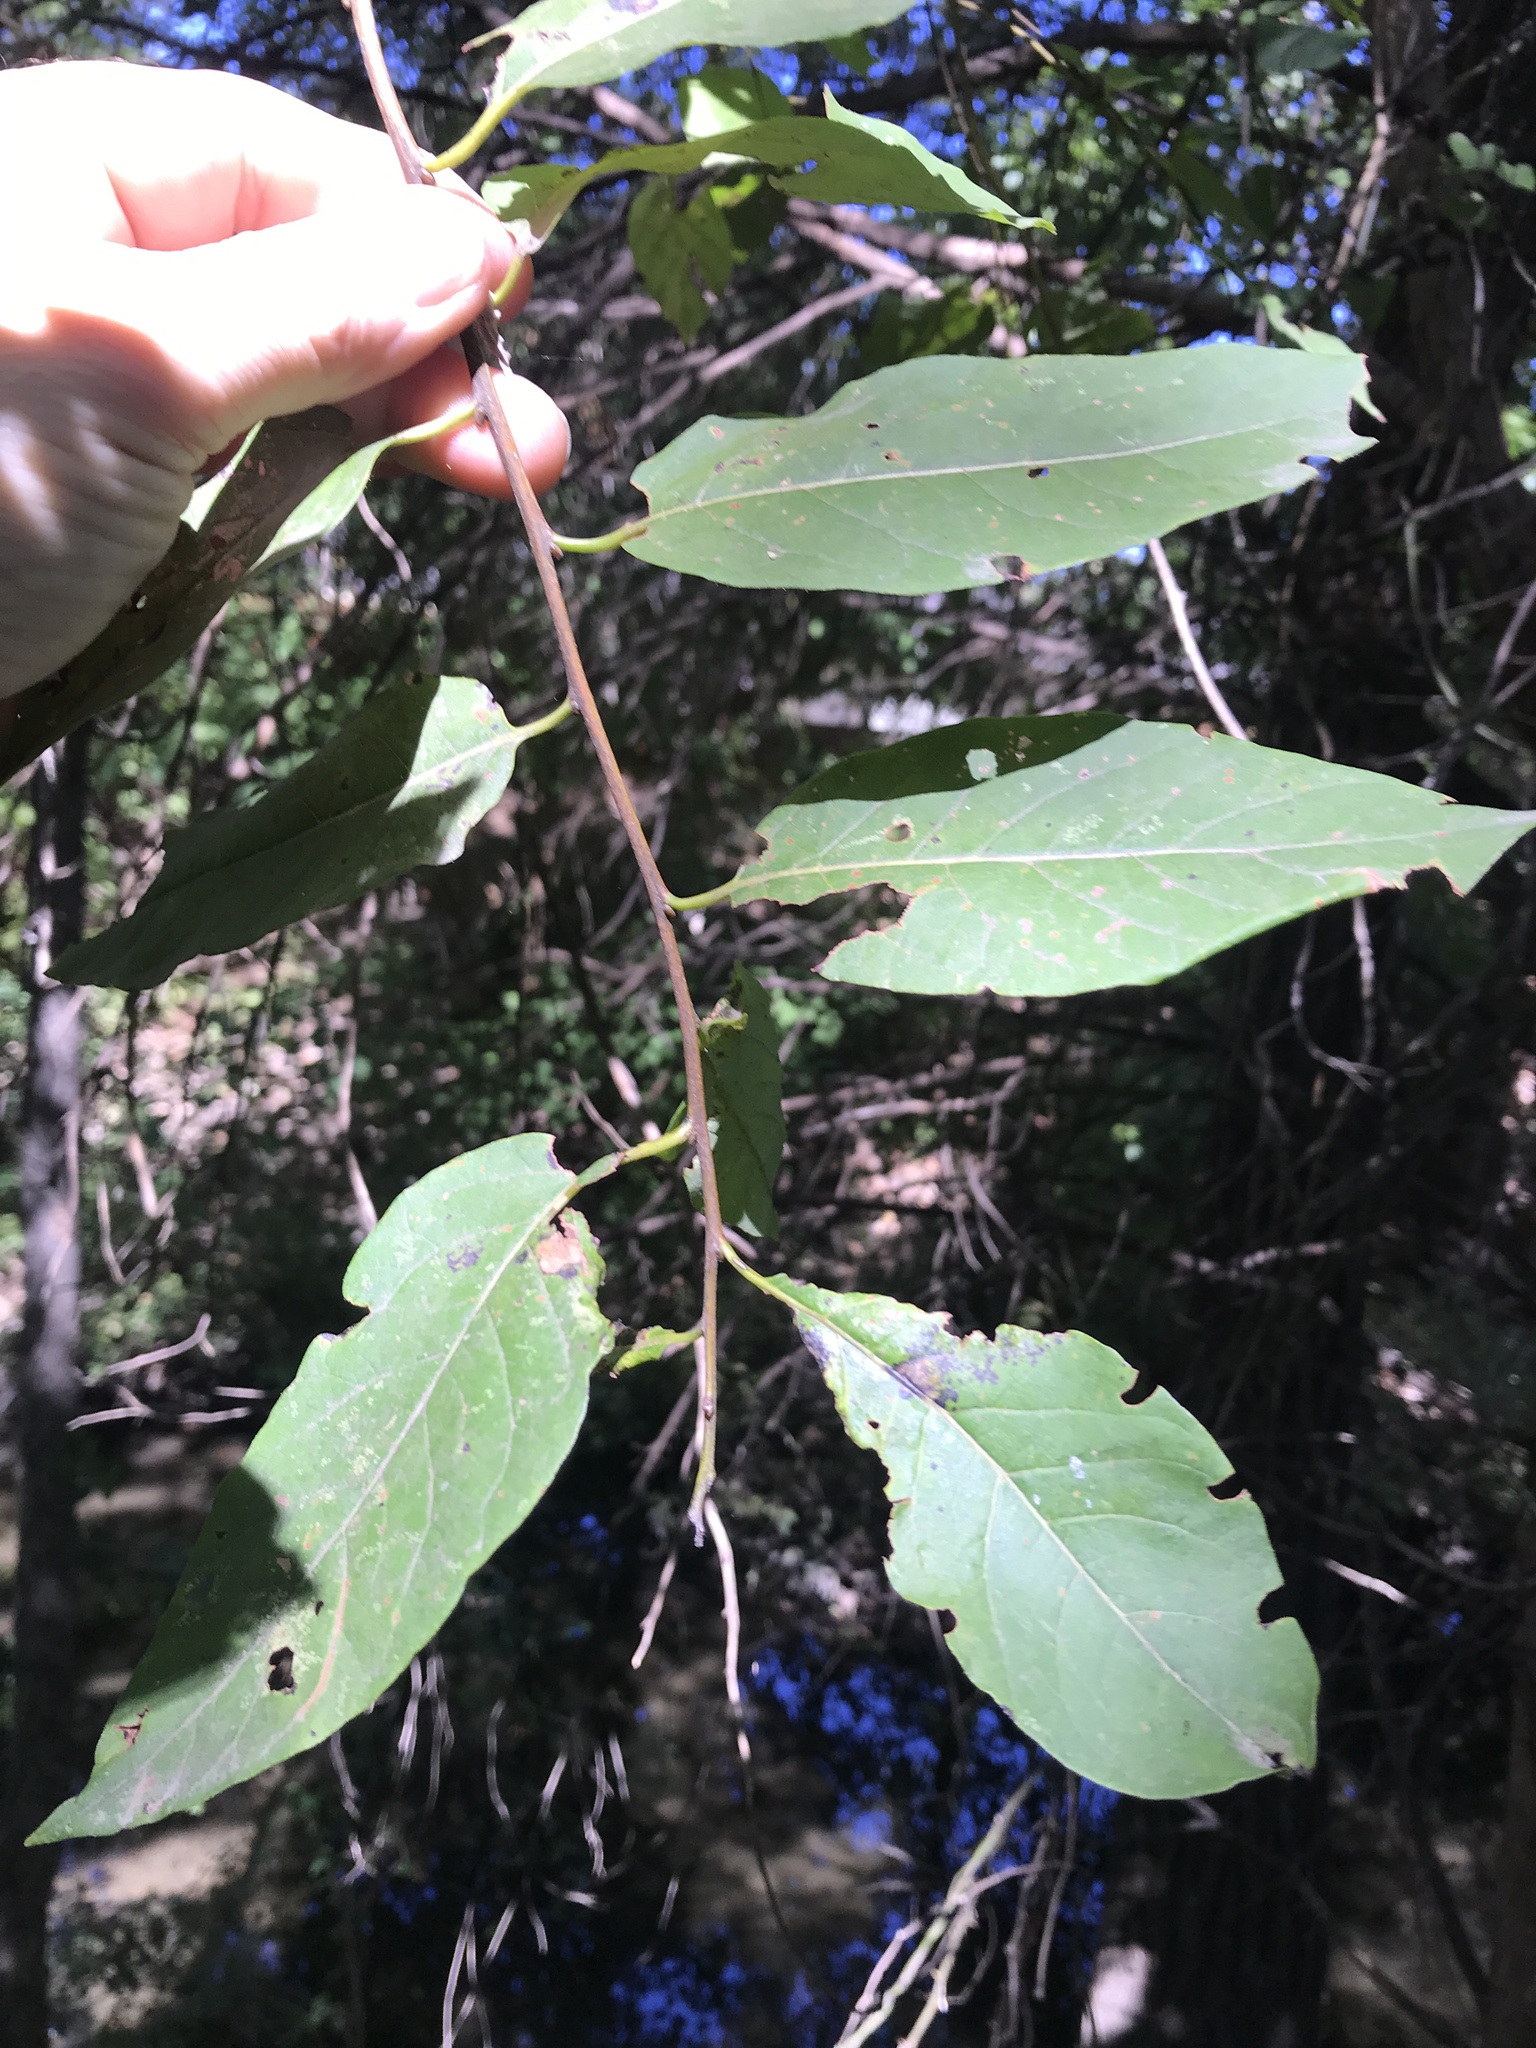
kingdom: Plantae
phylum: Tracheophyta
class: Magnoliopsida
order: Ericales
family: Ebenaceae
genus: Diospyros
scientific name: Diospyros virginiana
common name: Persimmon
